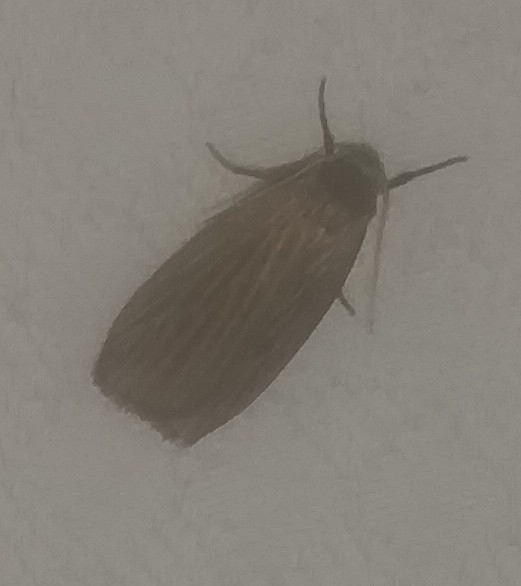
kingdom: Animalia
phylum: Arthropoda
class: Insecta
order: Lepidoptera
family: Erebidae
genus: Crambidia
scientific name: Crambidia pallida
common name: Pale lichen moth
